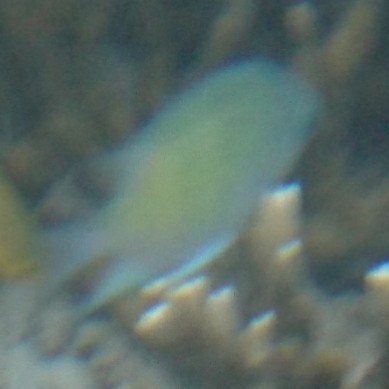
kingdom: Animalia
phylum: Chordata
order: Perciformes
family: Pomacentridae
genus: Amblyglyphidodon
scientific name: Amblyglyphidodon curacao
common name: Staghorn damsel
